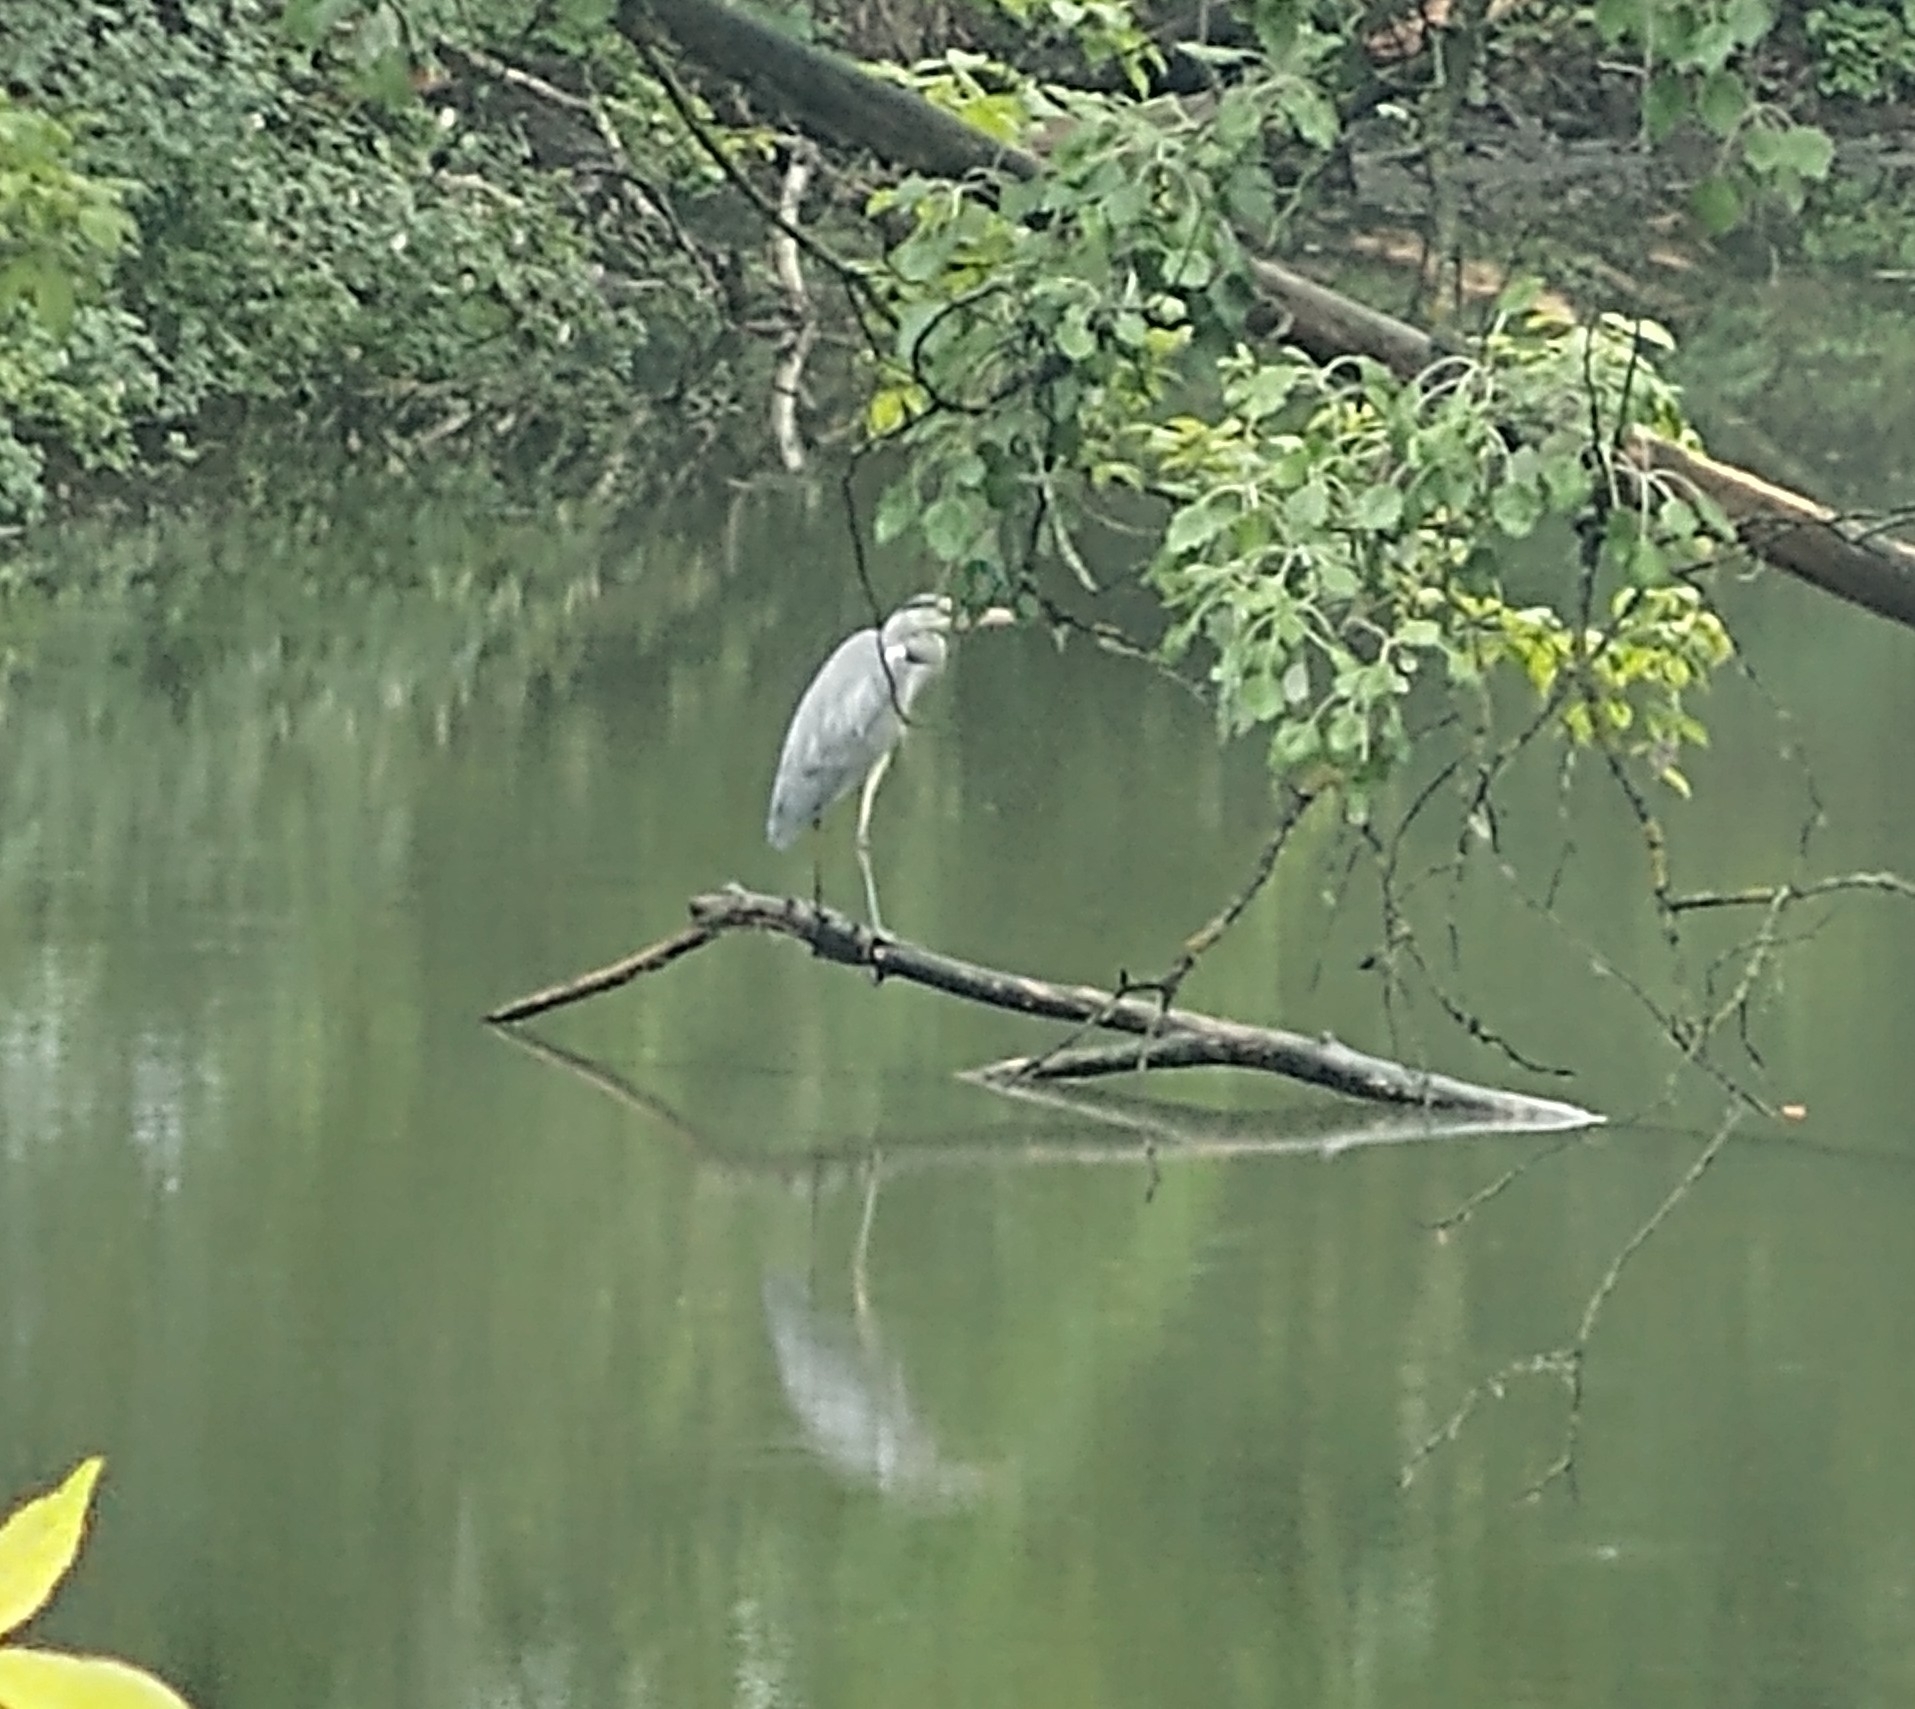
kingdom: Animalia
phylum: Chordata
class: Aves
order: Pelecaniformes
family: Ardeidae
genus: Ardea
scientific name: Ardea cinerea
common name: Grey heron
